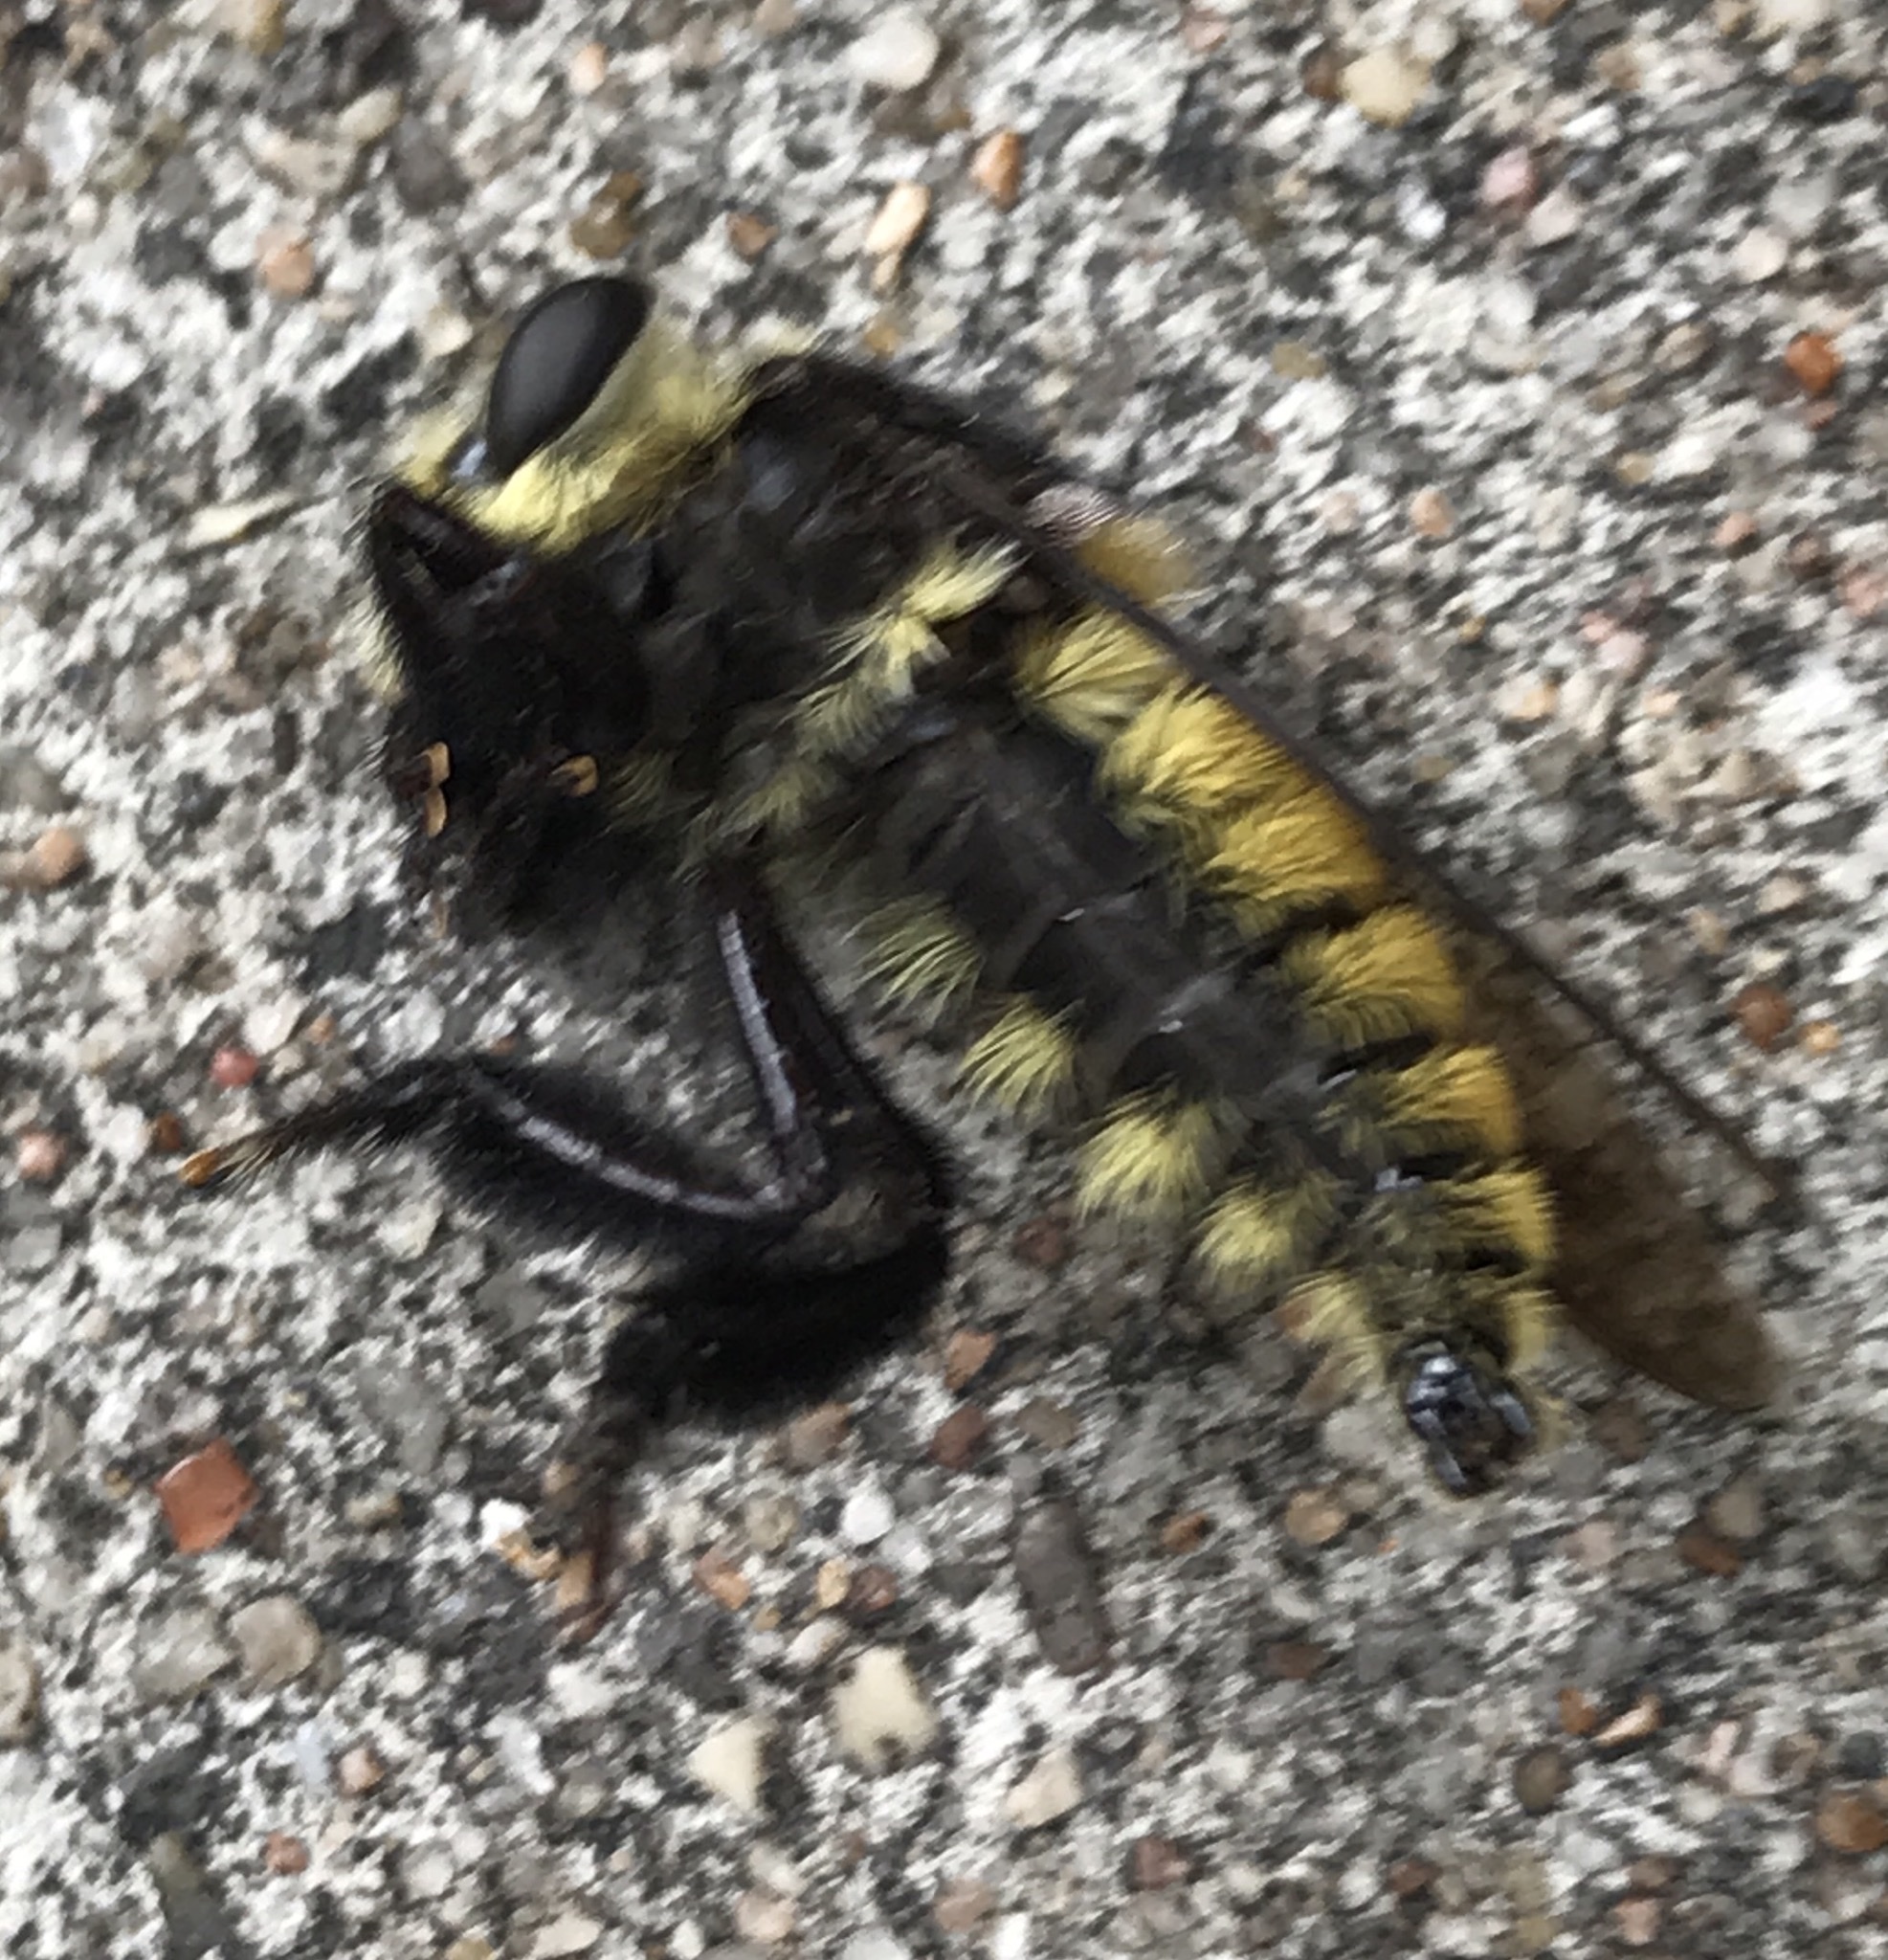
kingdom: Animalia
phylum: Arthropoda
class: Insecta
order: Diptera
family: Asilidae
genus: Mallophora
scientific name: Mallophora fautrix
